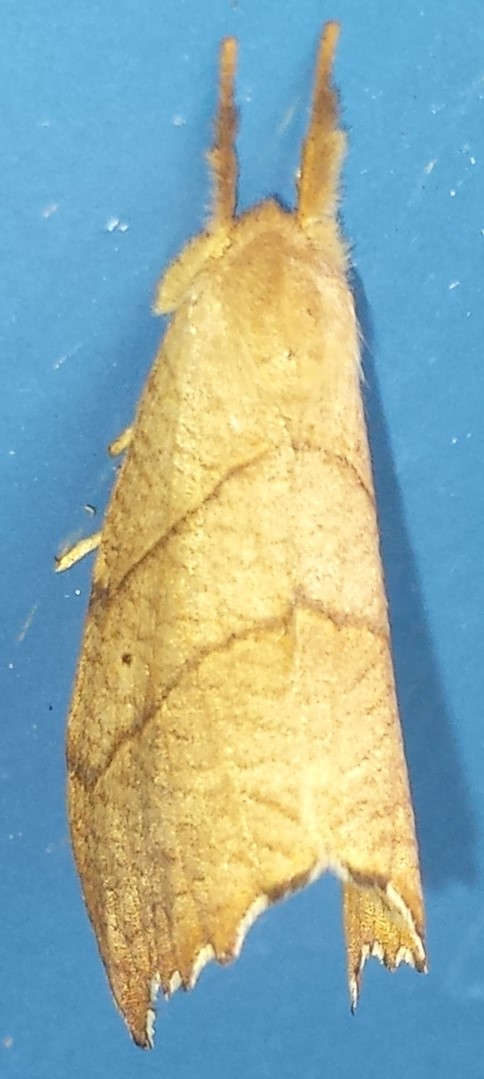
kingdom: Animalia
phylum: Arthropoda
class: Insecta
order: Lepidoptera
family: Drepanidae
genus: Falcaria
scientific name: Falcaria bilineata
